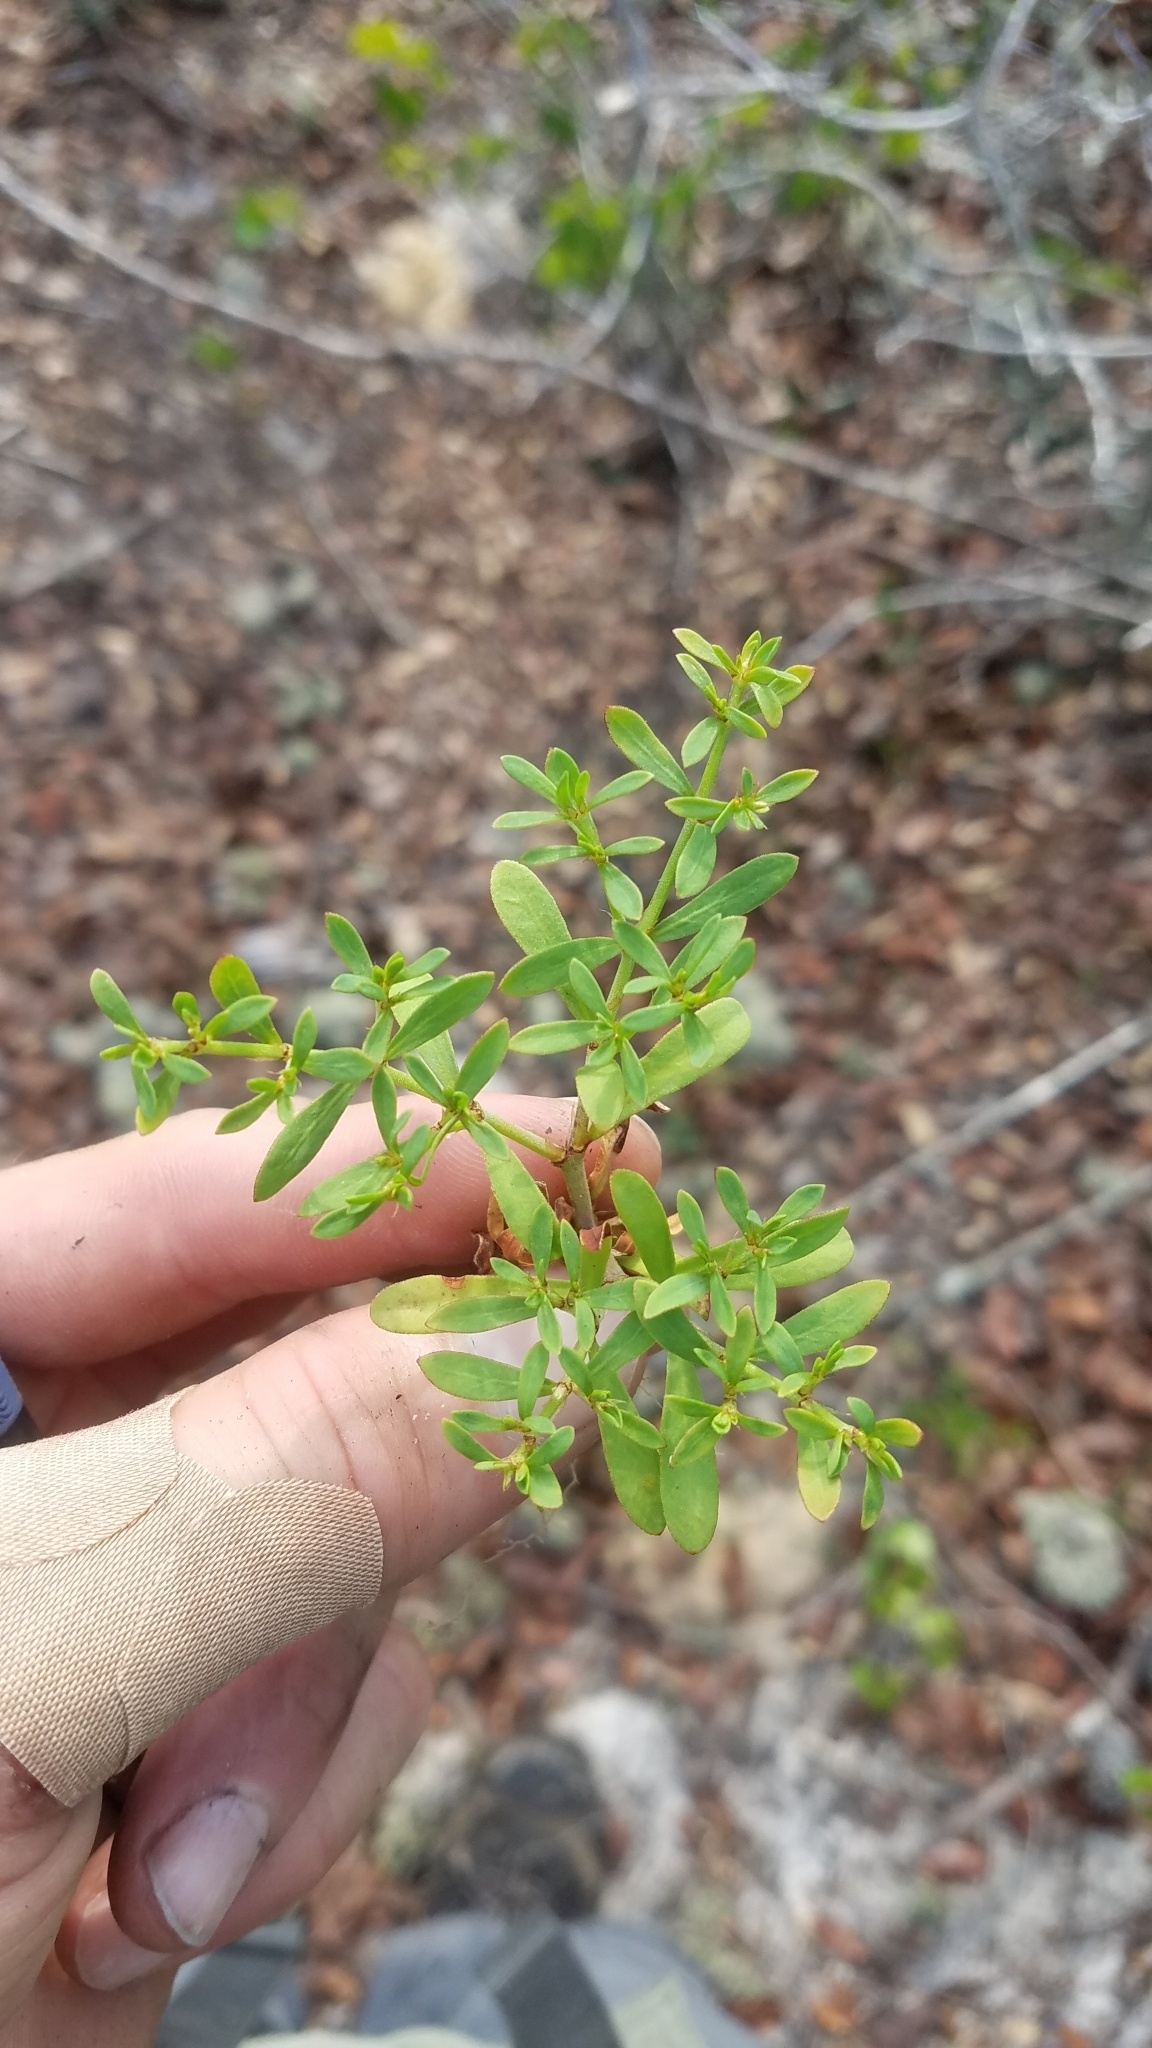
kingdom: Plantae
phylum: Tracheophyta
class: Magnoliopsida
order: Caryophyllales
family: Caryophyllaceae
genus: Paronychia
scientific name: Paronychia americana
